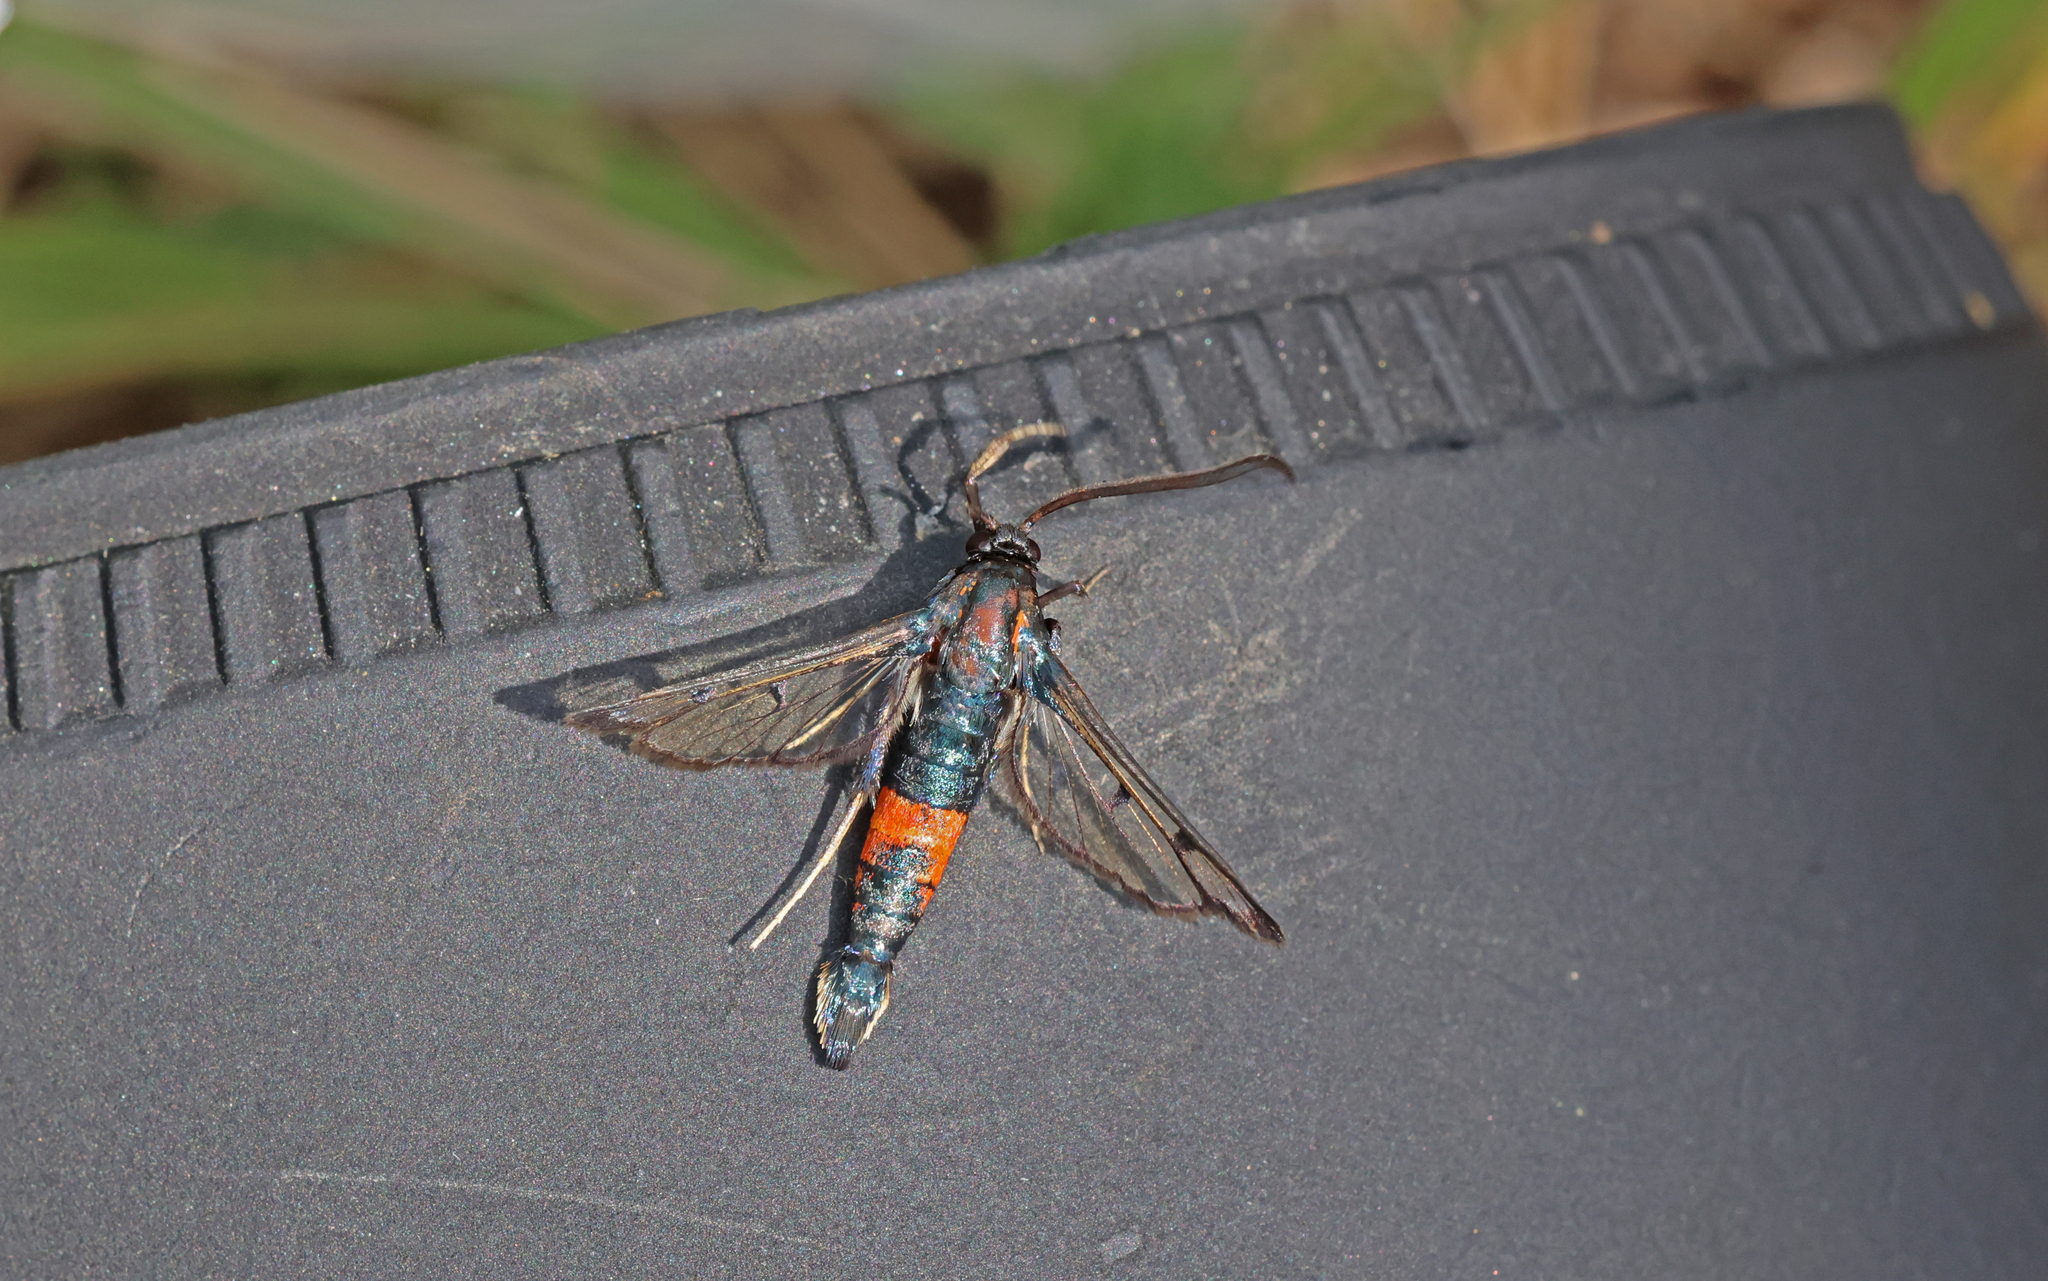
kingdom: Animalia
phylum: Arthropoda
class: Insecta
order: Lepidoptera
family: Sesiidae
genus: Synanthedon
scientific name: Synanthedon stomoxiformis
